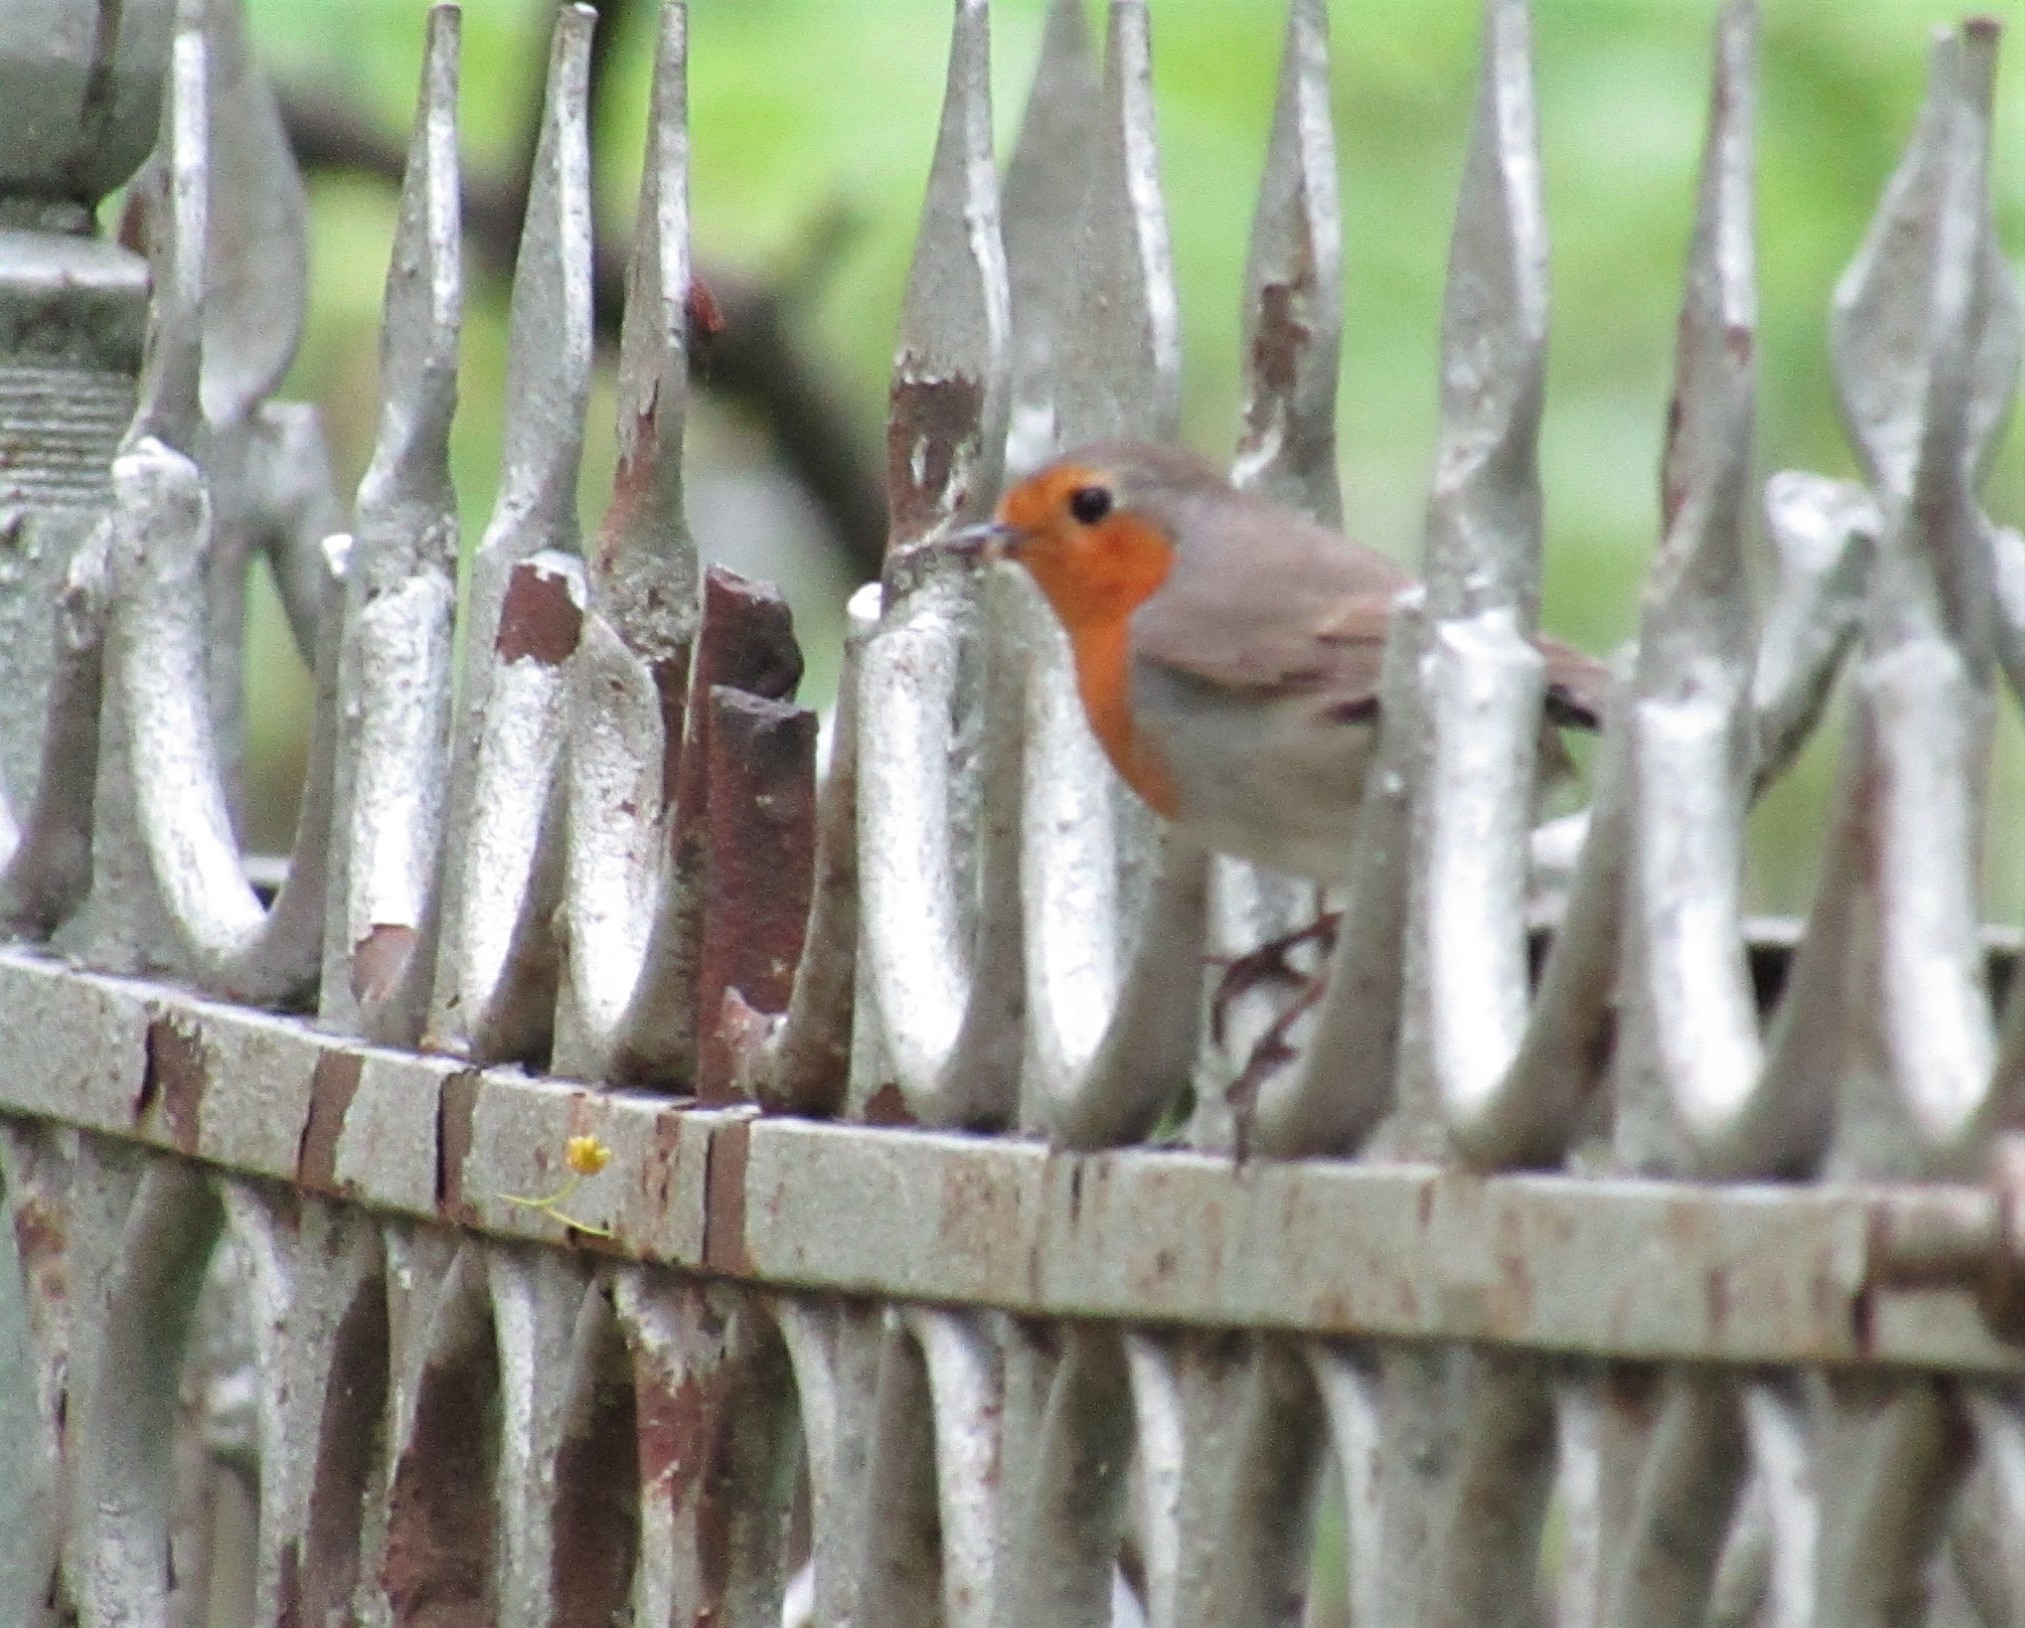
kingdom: Animalia
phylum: Chordata
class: Aves
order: Passeriformes
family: Muscicapidae
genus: Erithacus
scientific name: Erithacus rubecula
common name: European robin
